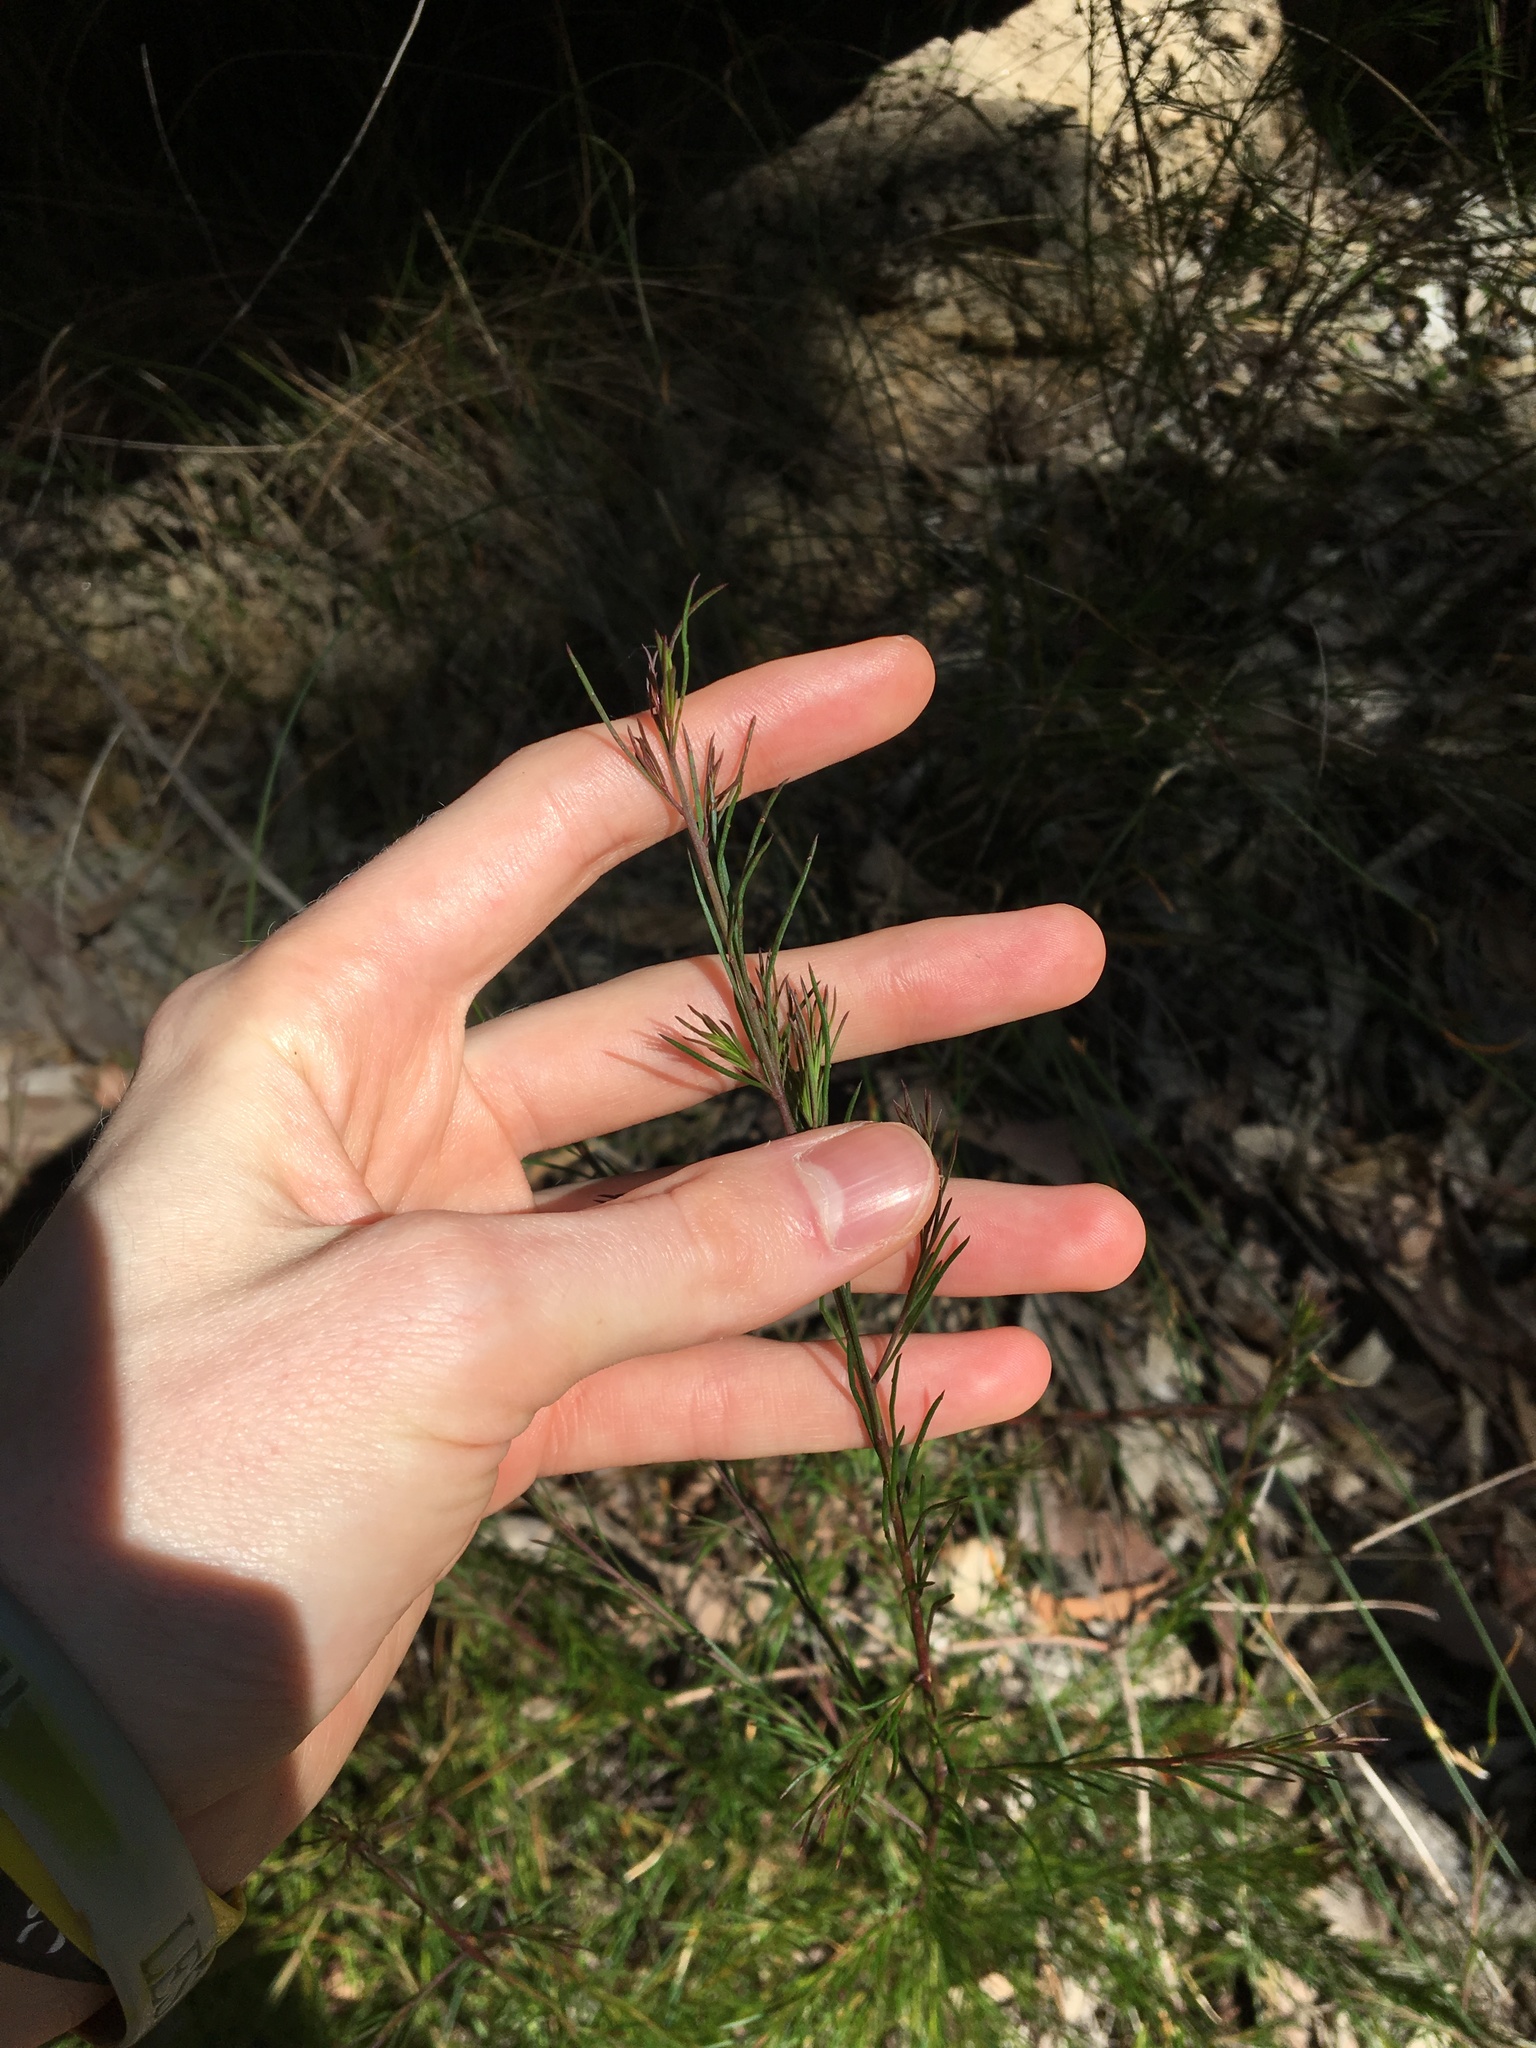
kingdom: Plantae
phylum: Tracheophyta
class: Magnoliopsida
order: Apiales
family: Apiaceae
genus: Platysace
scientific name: Platysace linearifolia
